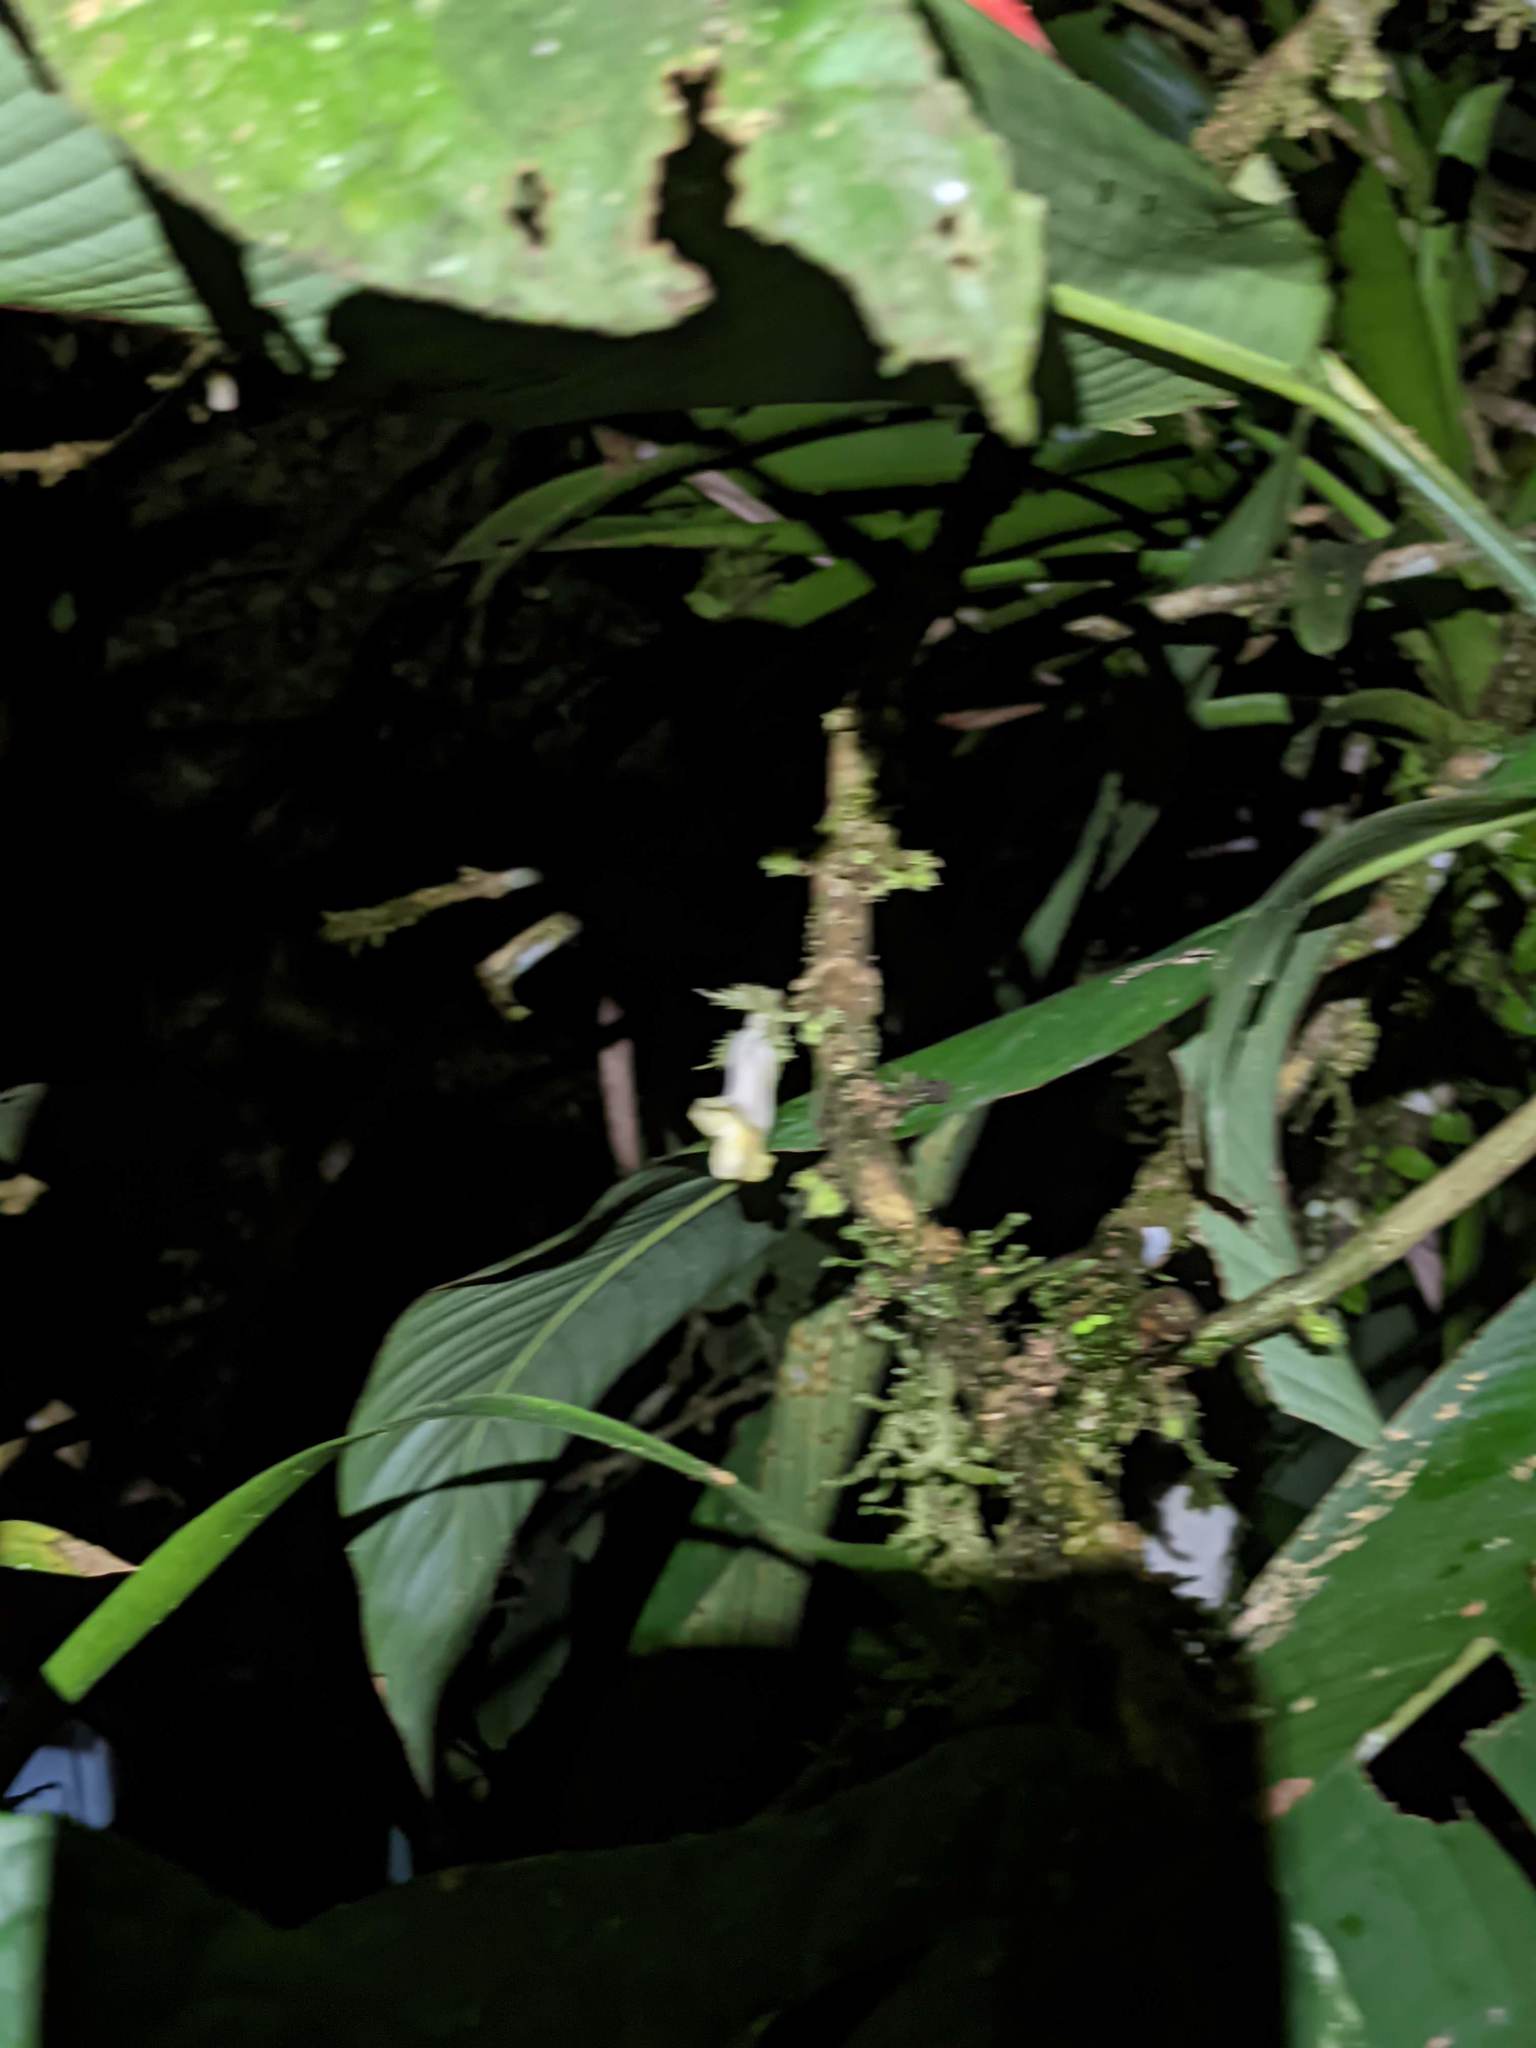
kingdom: Plantae
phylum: Tracheophyta
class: Magnoliopsida
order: Lamiales
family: Gesneriaceae
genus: Drymonia
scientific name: Drymonia macrophylla
